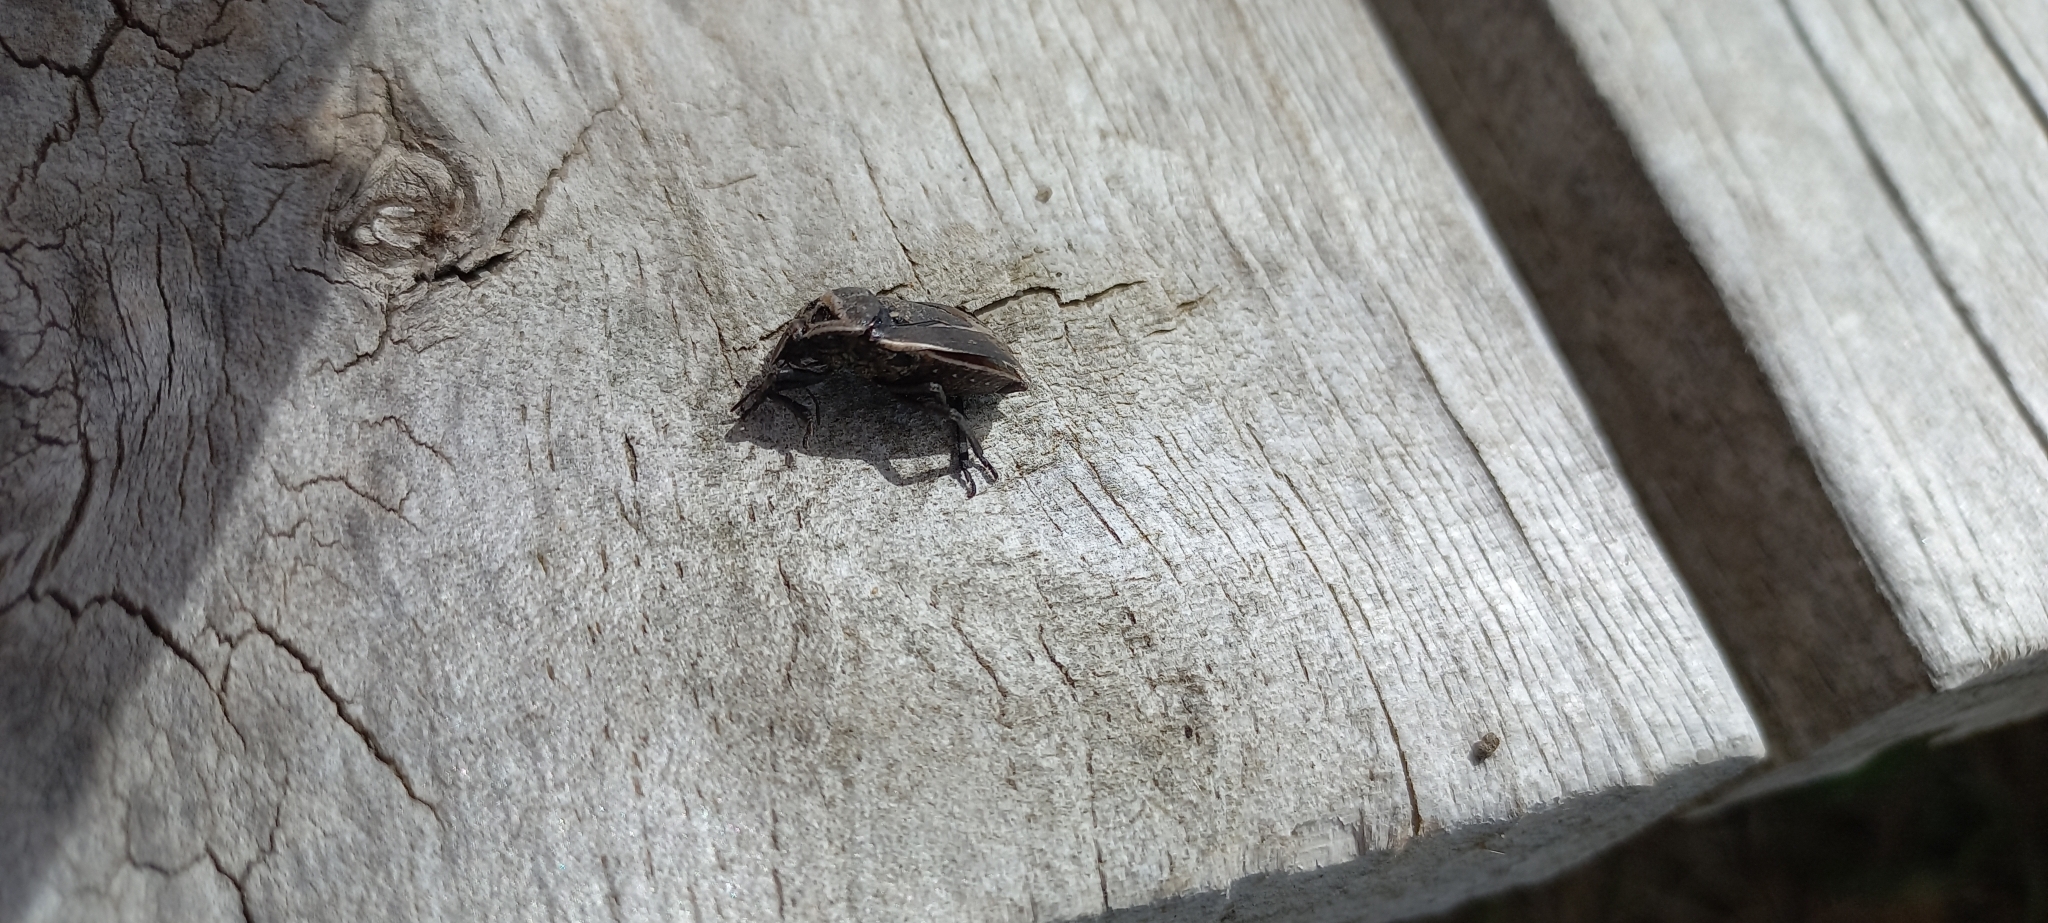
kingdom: Animalia
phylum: Arthropoda
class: Insecta
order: Hemiptera
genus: Eonymia
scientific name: Eonymia
